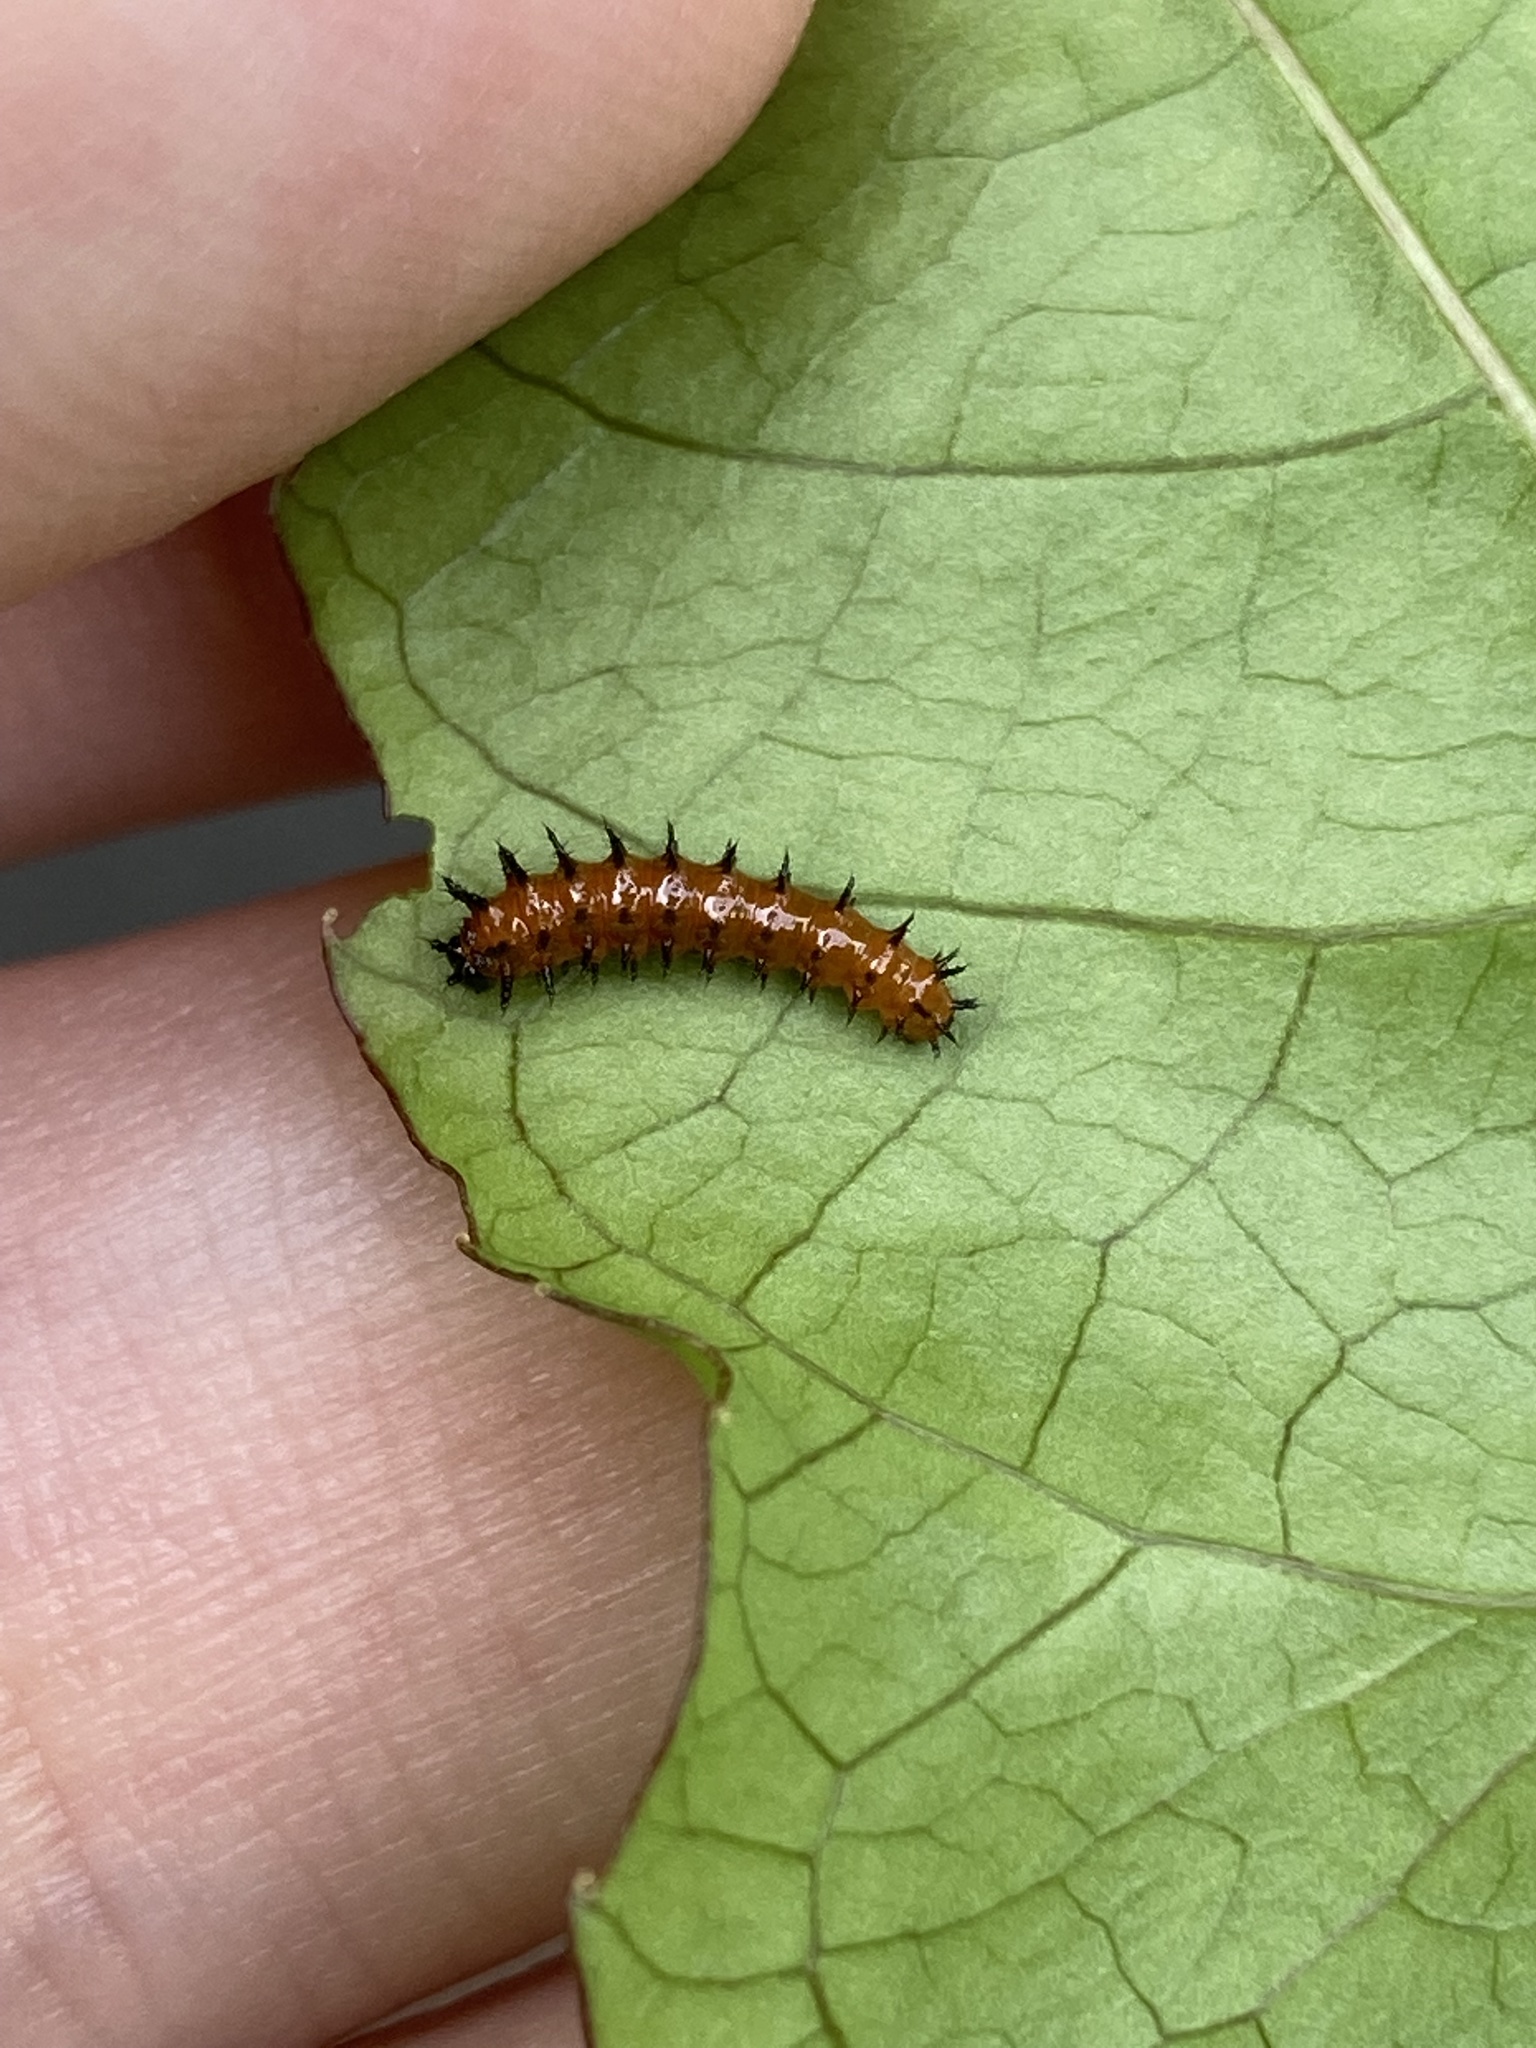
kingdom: Animalia
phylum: Arthropoda
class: Insecta
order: Lepidoptera
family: Nymphalidae
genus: Dione
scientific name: Dione vanillae
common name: Gulf fritillary
